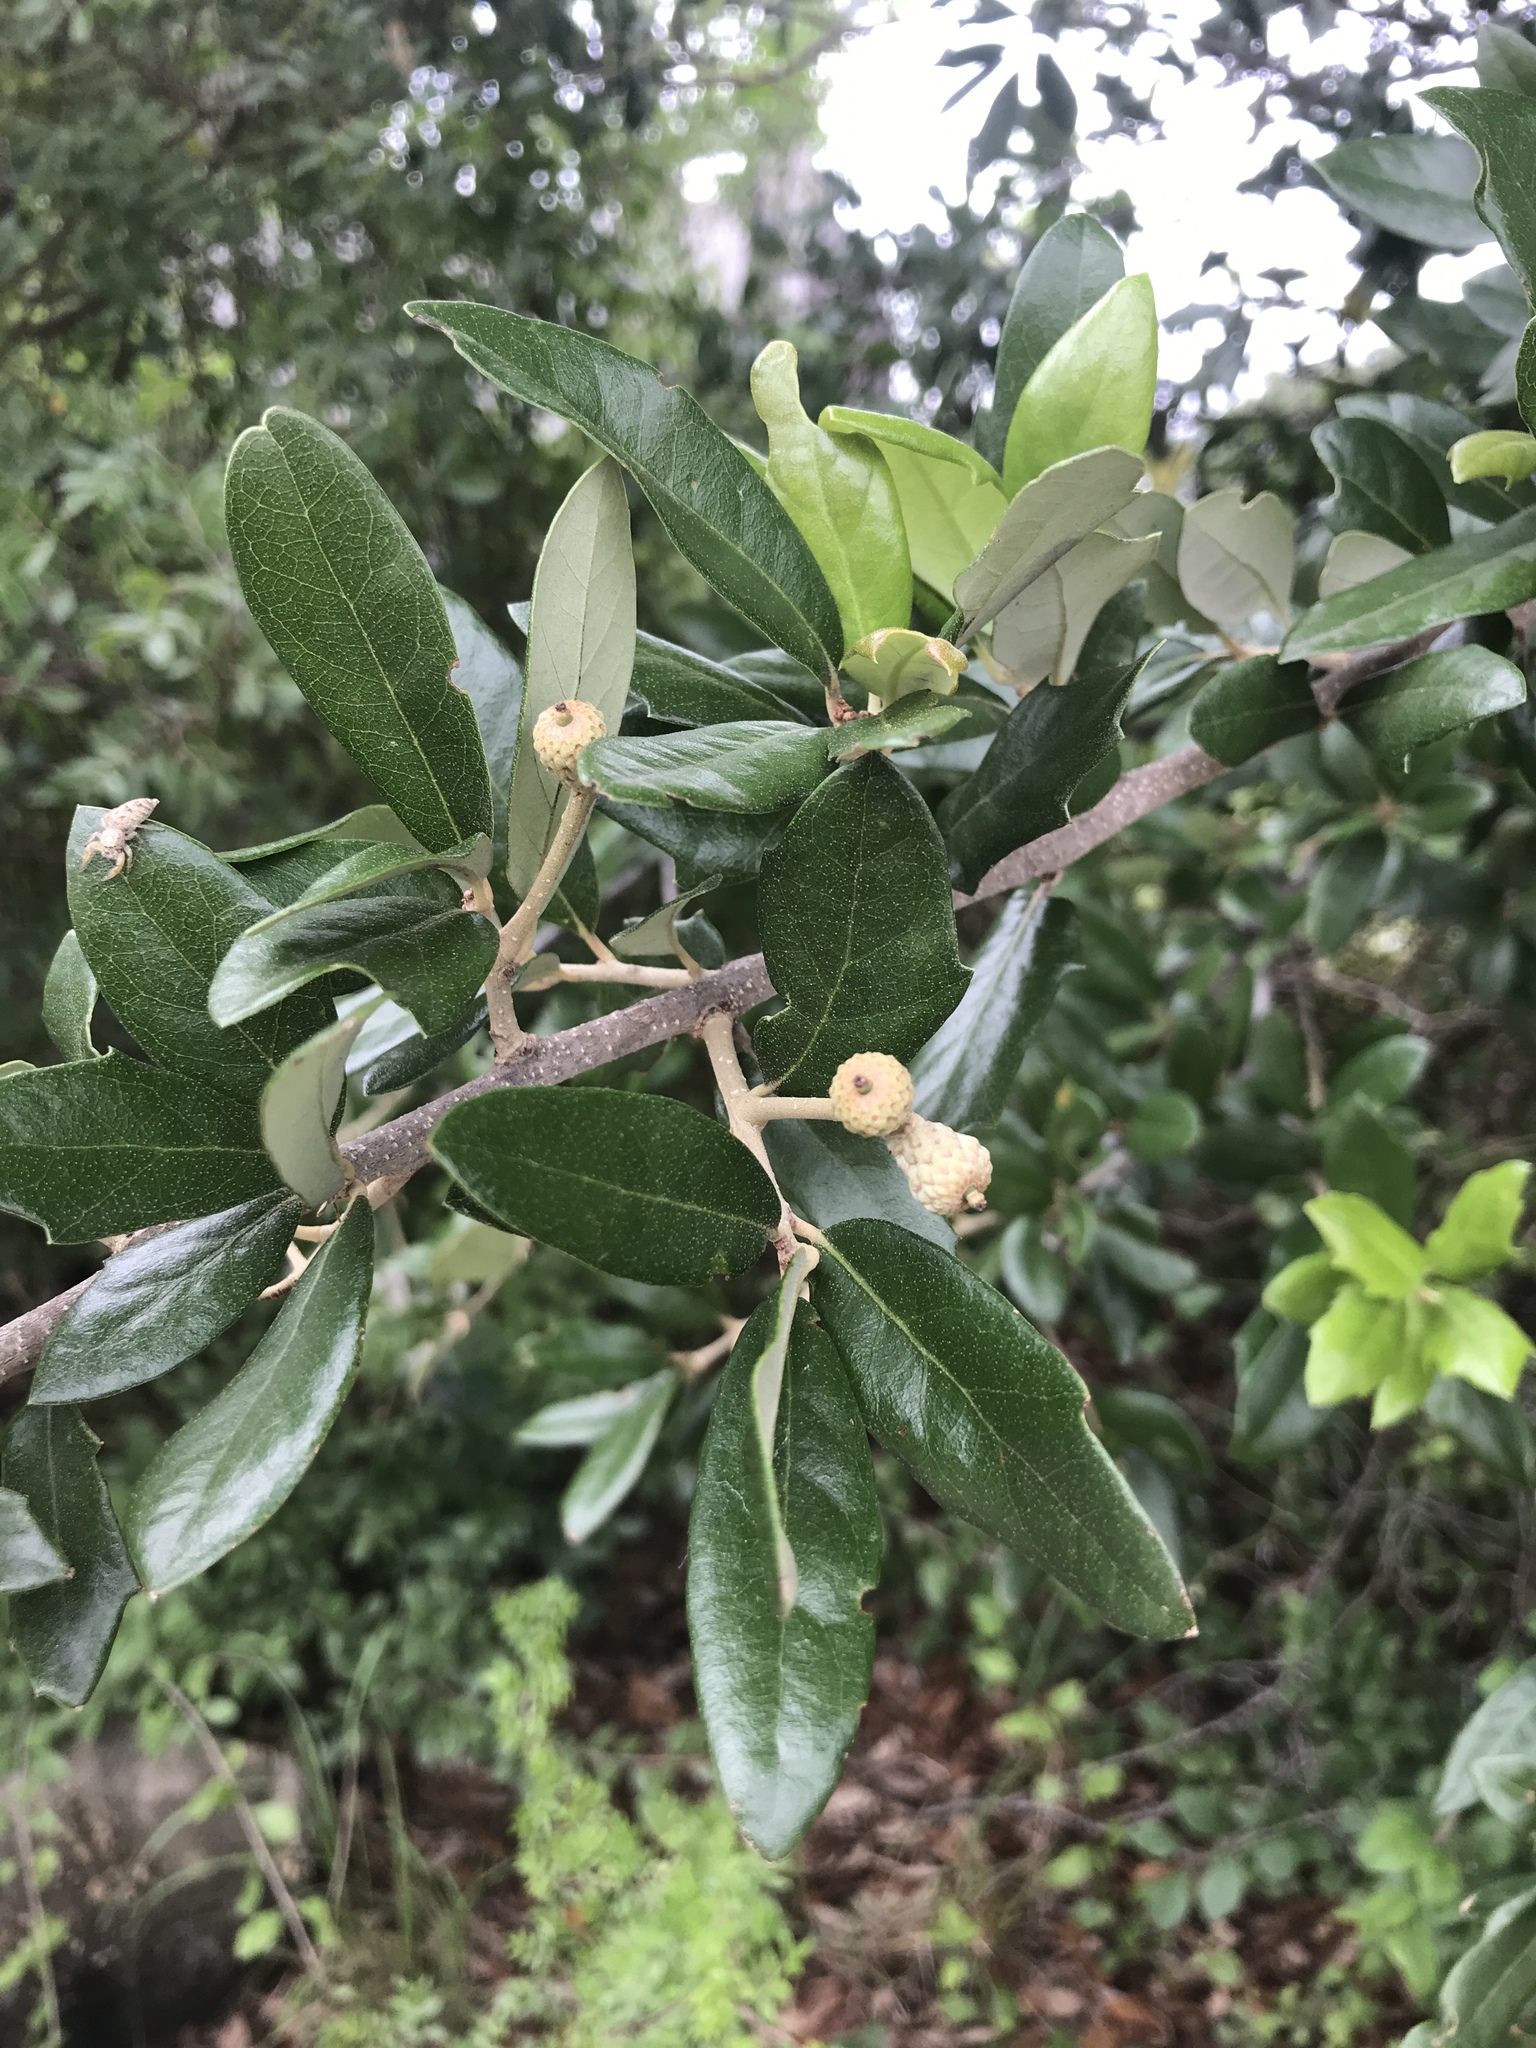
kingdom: Plantae
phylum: Tracheophyta
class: Magnoliopsida
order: Fagales
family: Fagaceae
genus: Quercus
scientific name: Quercus fusiformis
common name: Texas live oak
